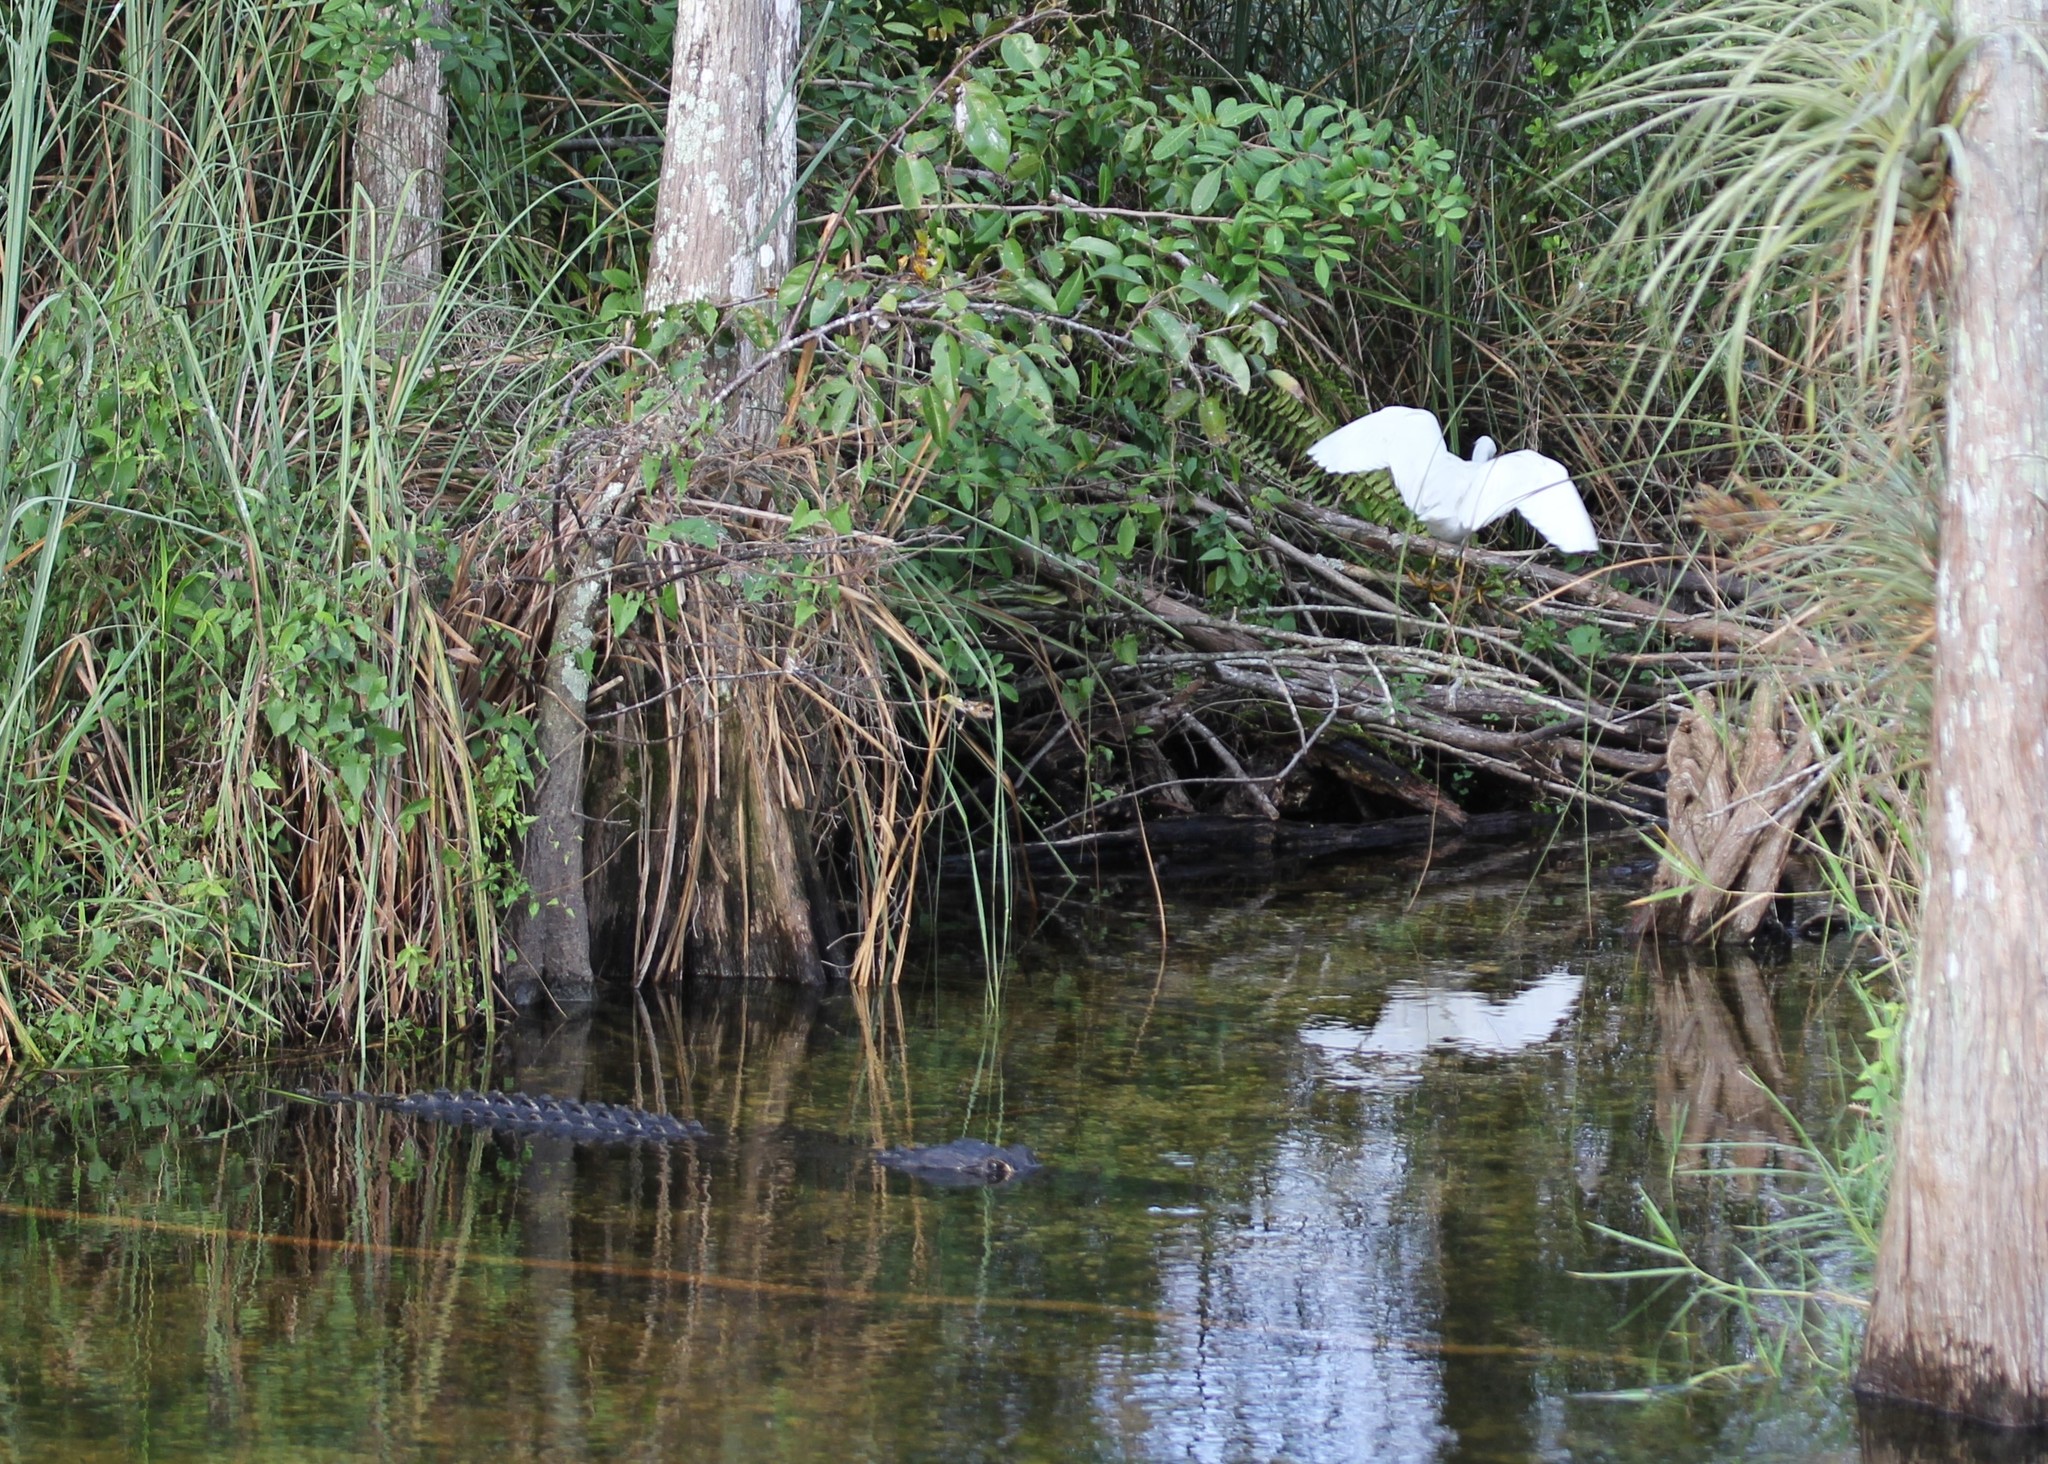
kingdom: Animalia
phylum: Chordata
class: Aves
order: Pelecaniformes
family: Ardeidae
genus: Egretta
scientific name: Egretta thula
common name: Snowy egret
